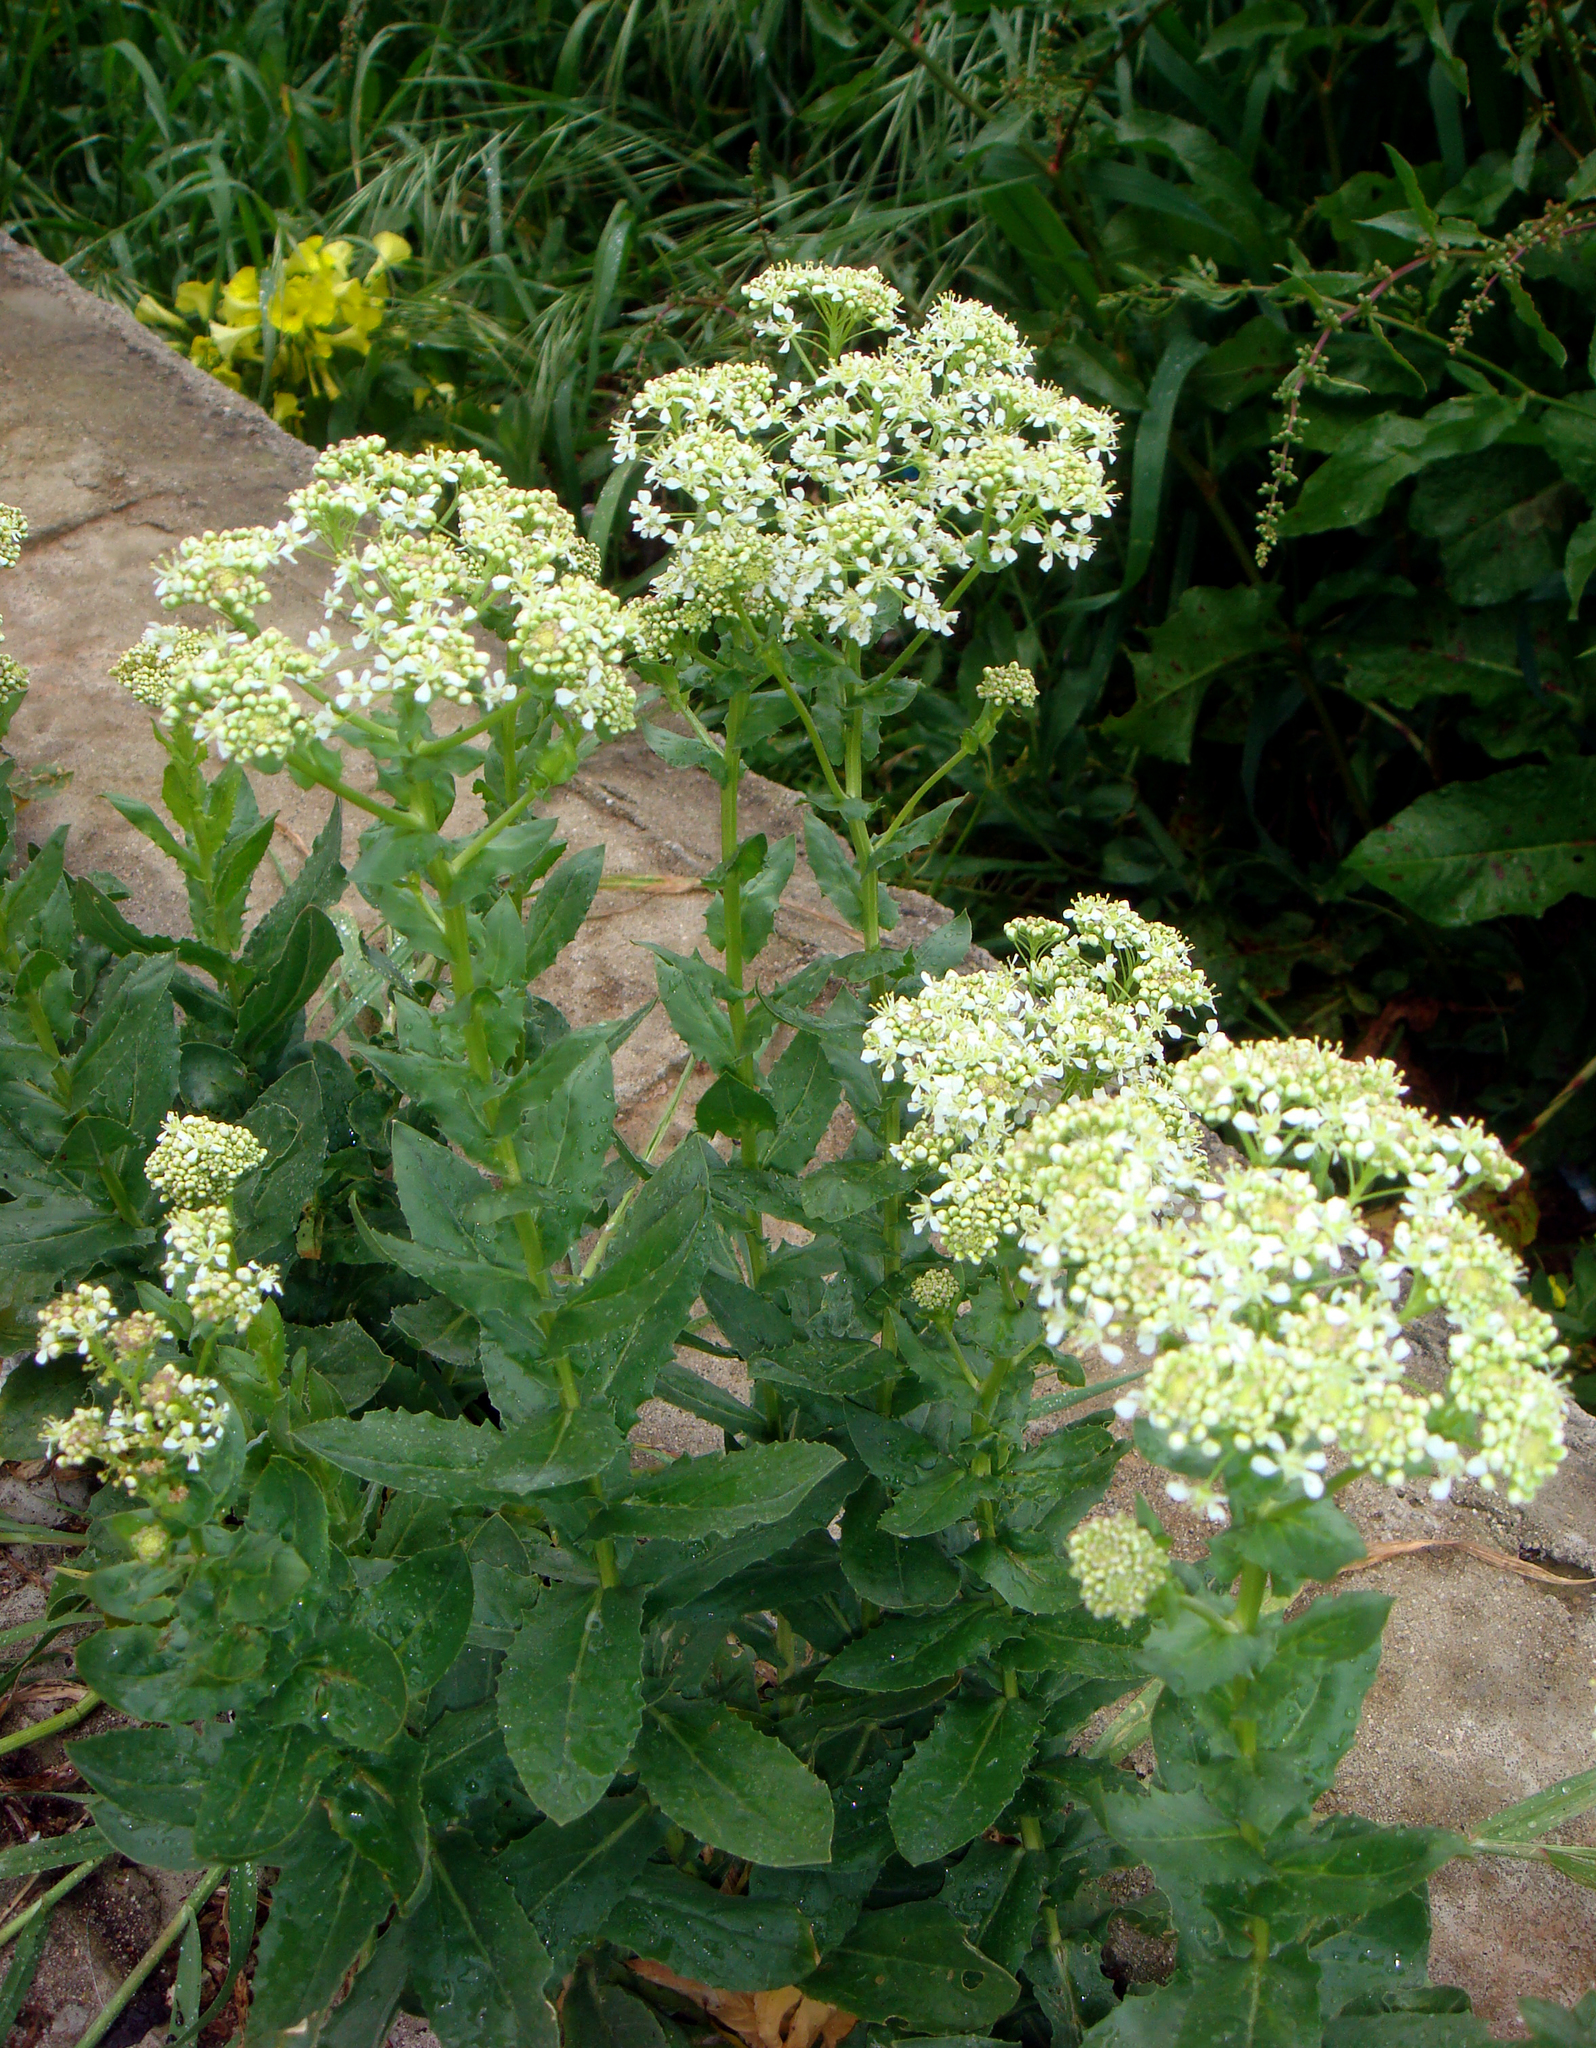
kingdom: Plantae
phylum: Tracheophyta
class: Magnoliopsida
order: Brassicales
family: Brassicaceae
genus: Lepidium
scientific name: Lepidium draba
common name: Hoary cress
